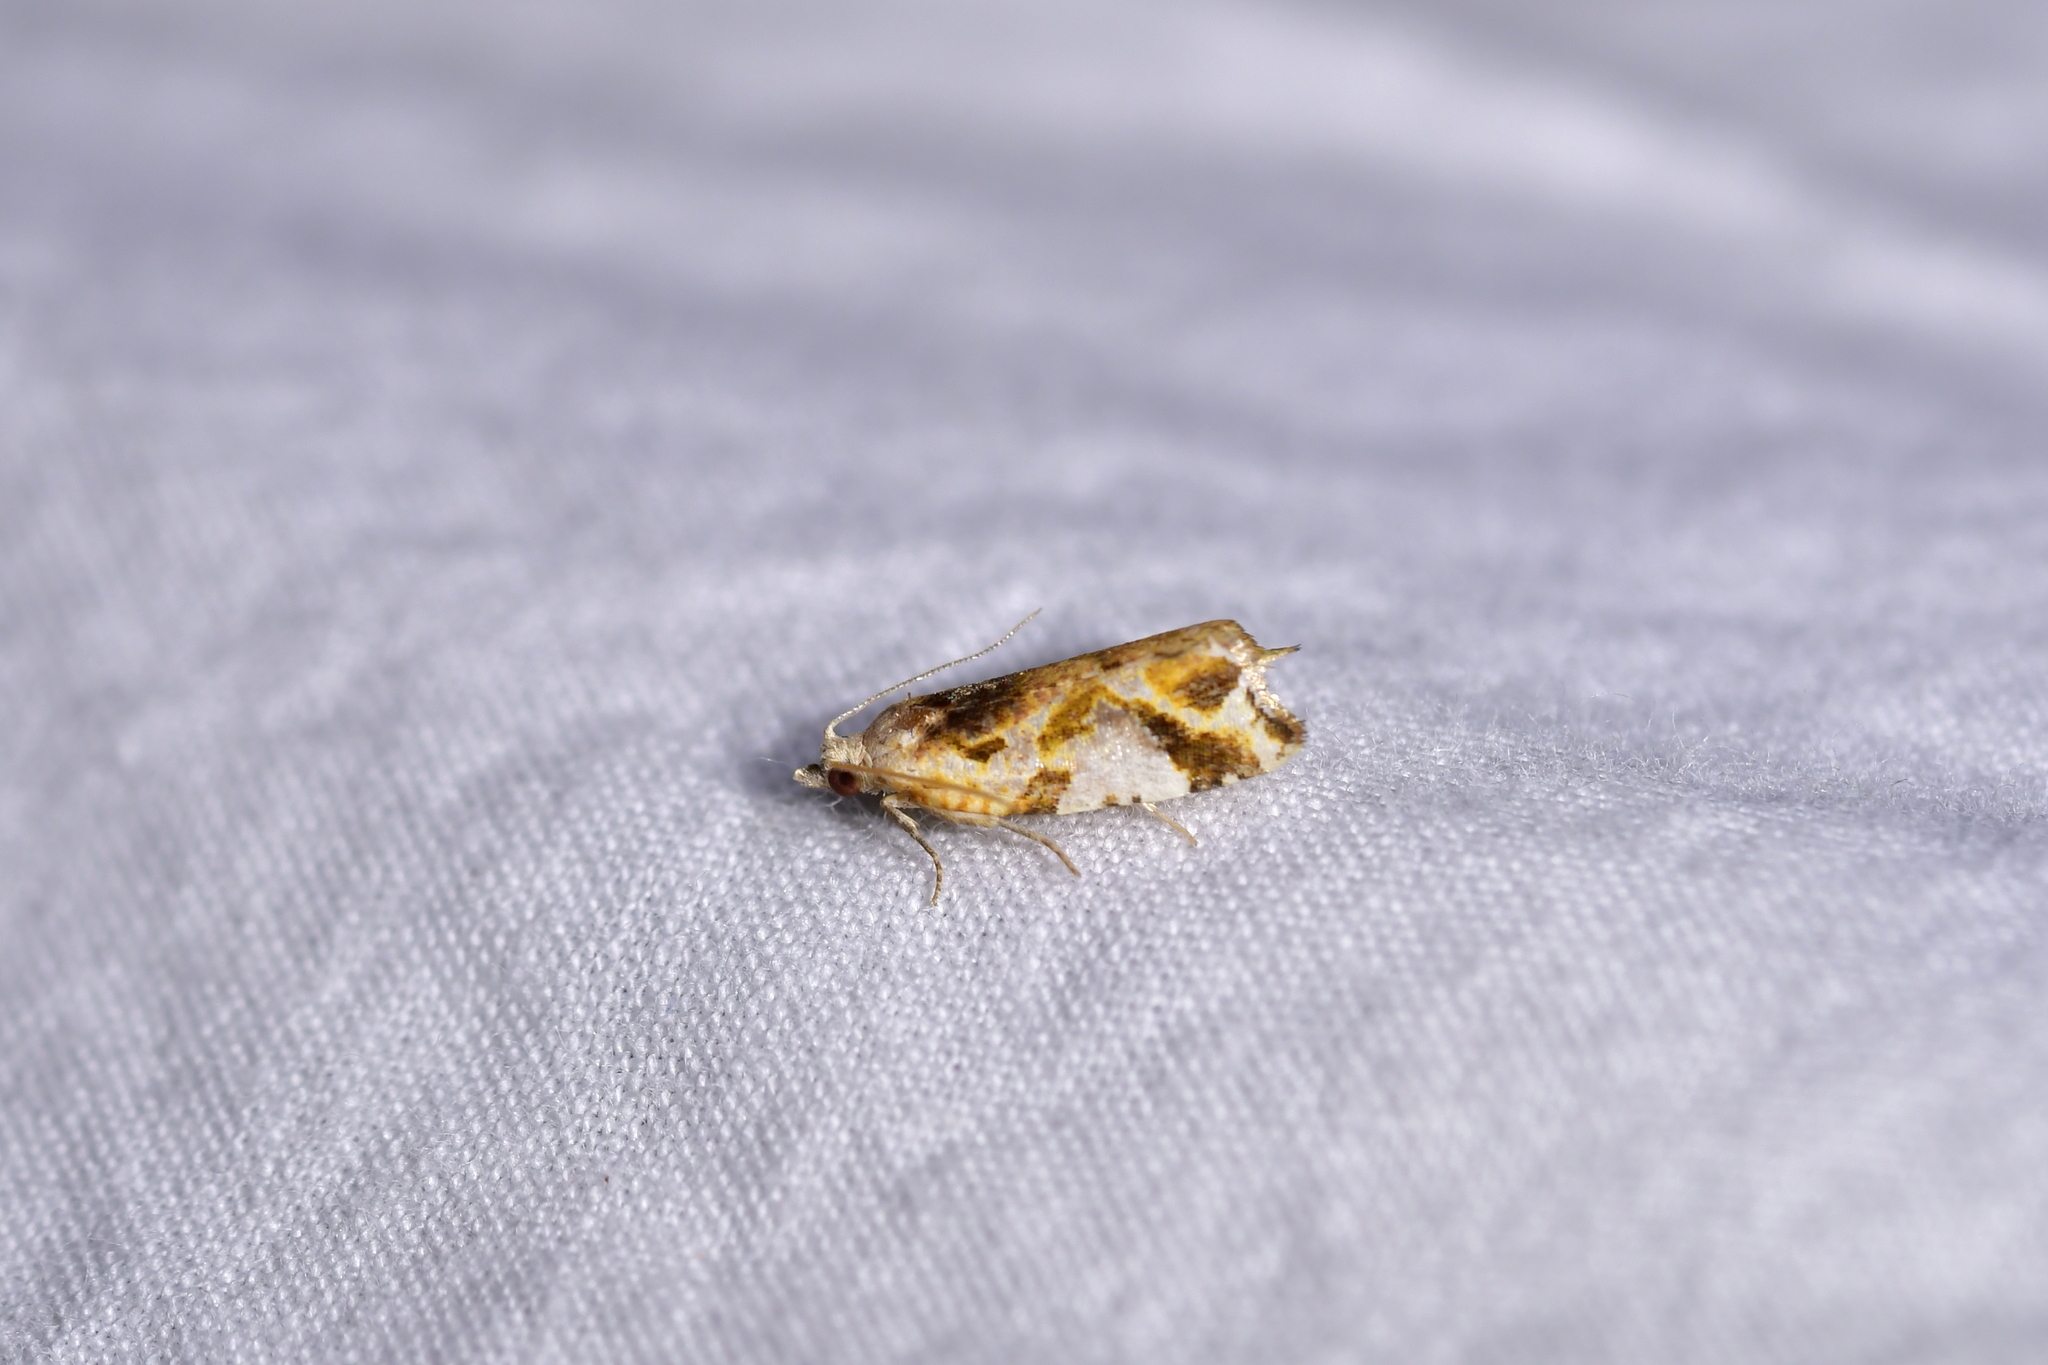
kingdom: Animalia
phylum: Arthropoda
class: Insecta
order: Lepidoptera
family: Tortricidae
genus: Pyrgotis
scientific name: Pyrgotis plagiatana
